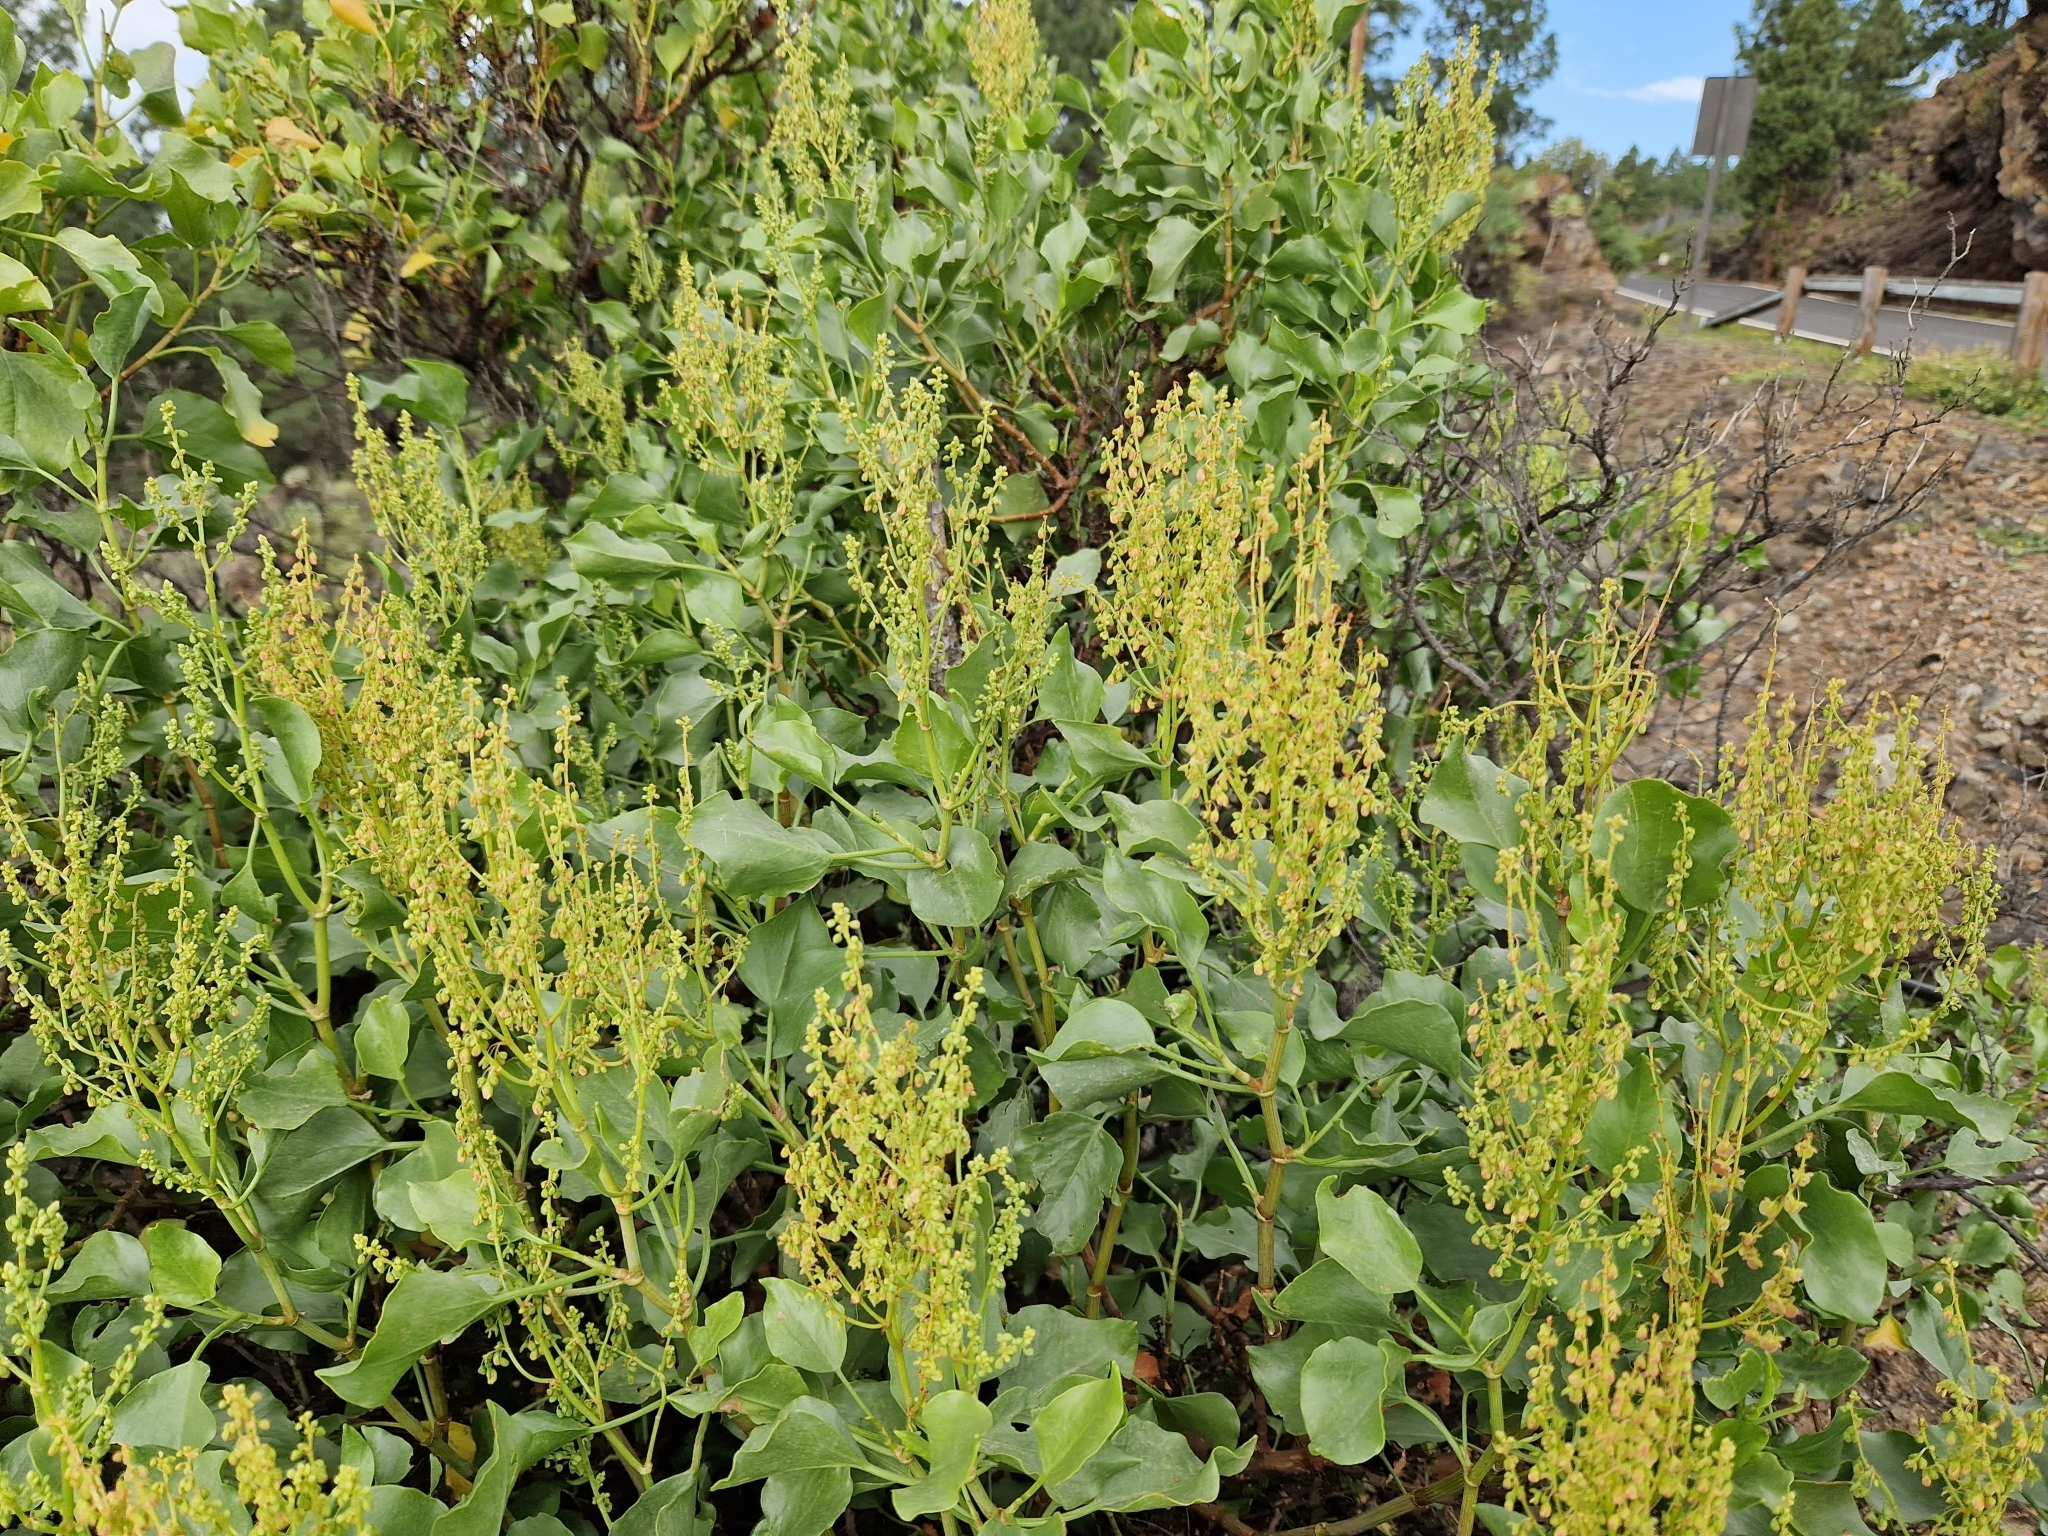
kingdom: Plantae
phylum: Tracheophyta
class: Magnoliopsida
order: Caryophyllales
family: Polygonaceae
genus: Rumex
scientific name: Rumex lunaria
